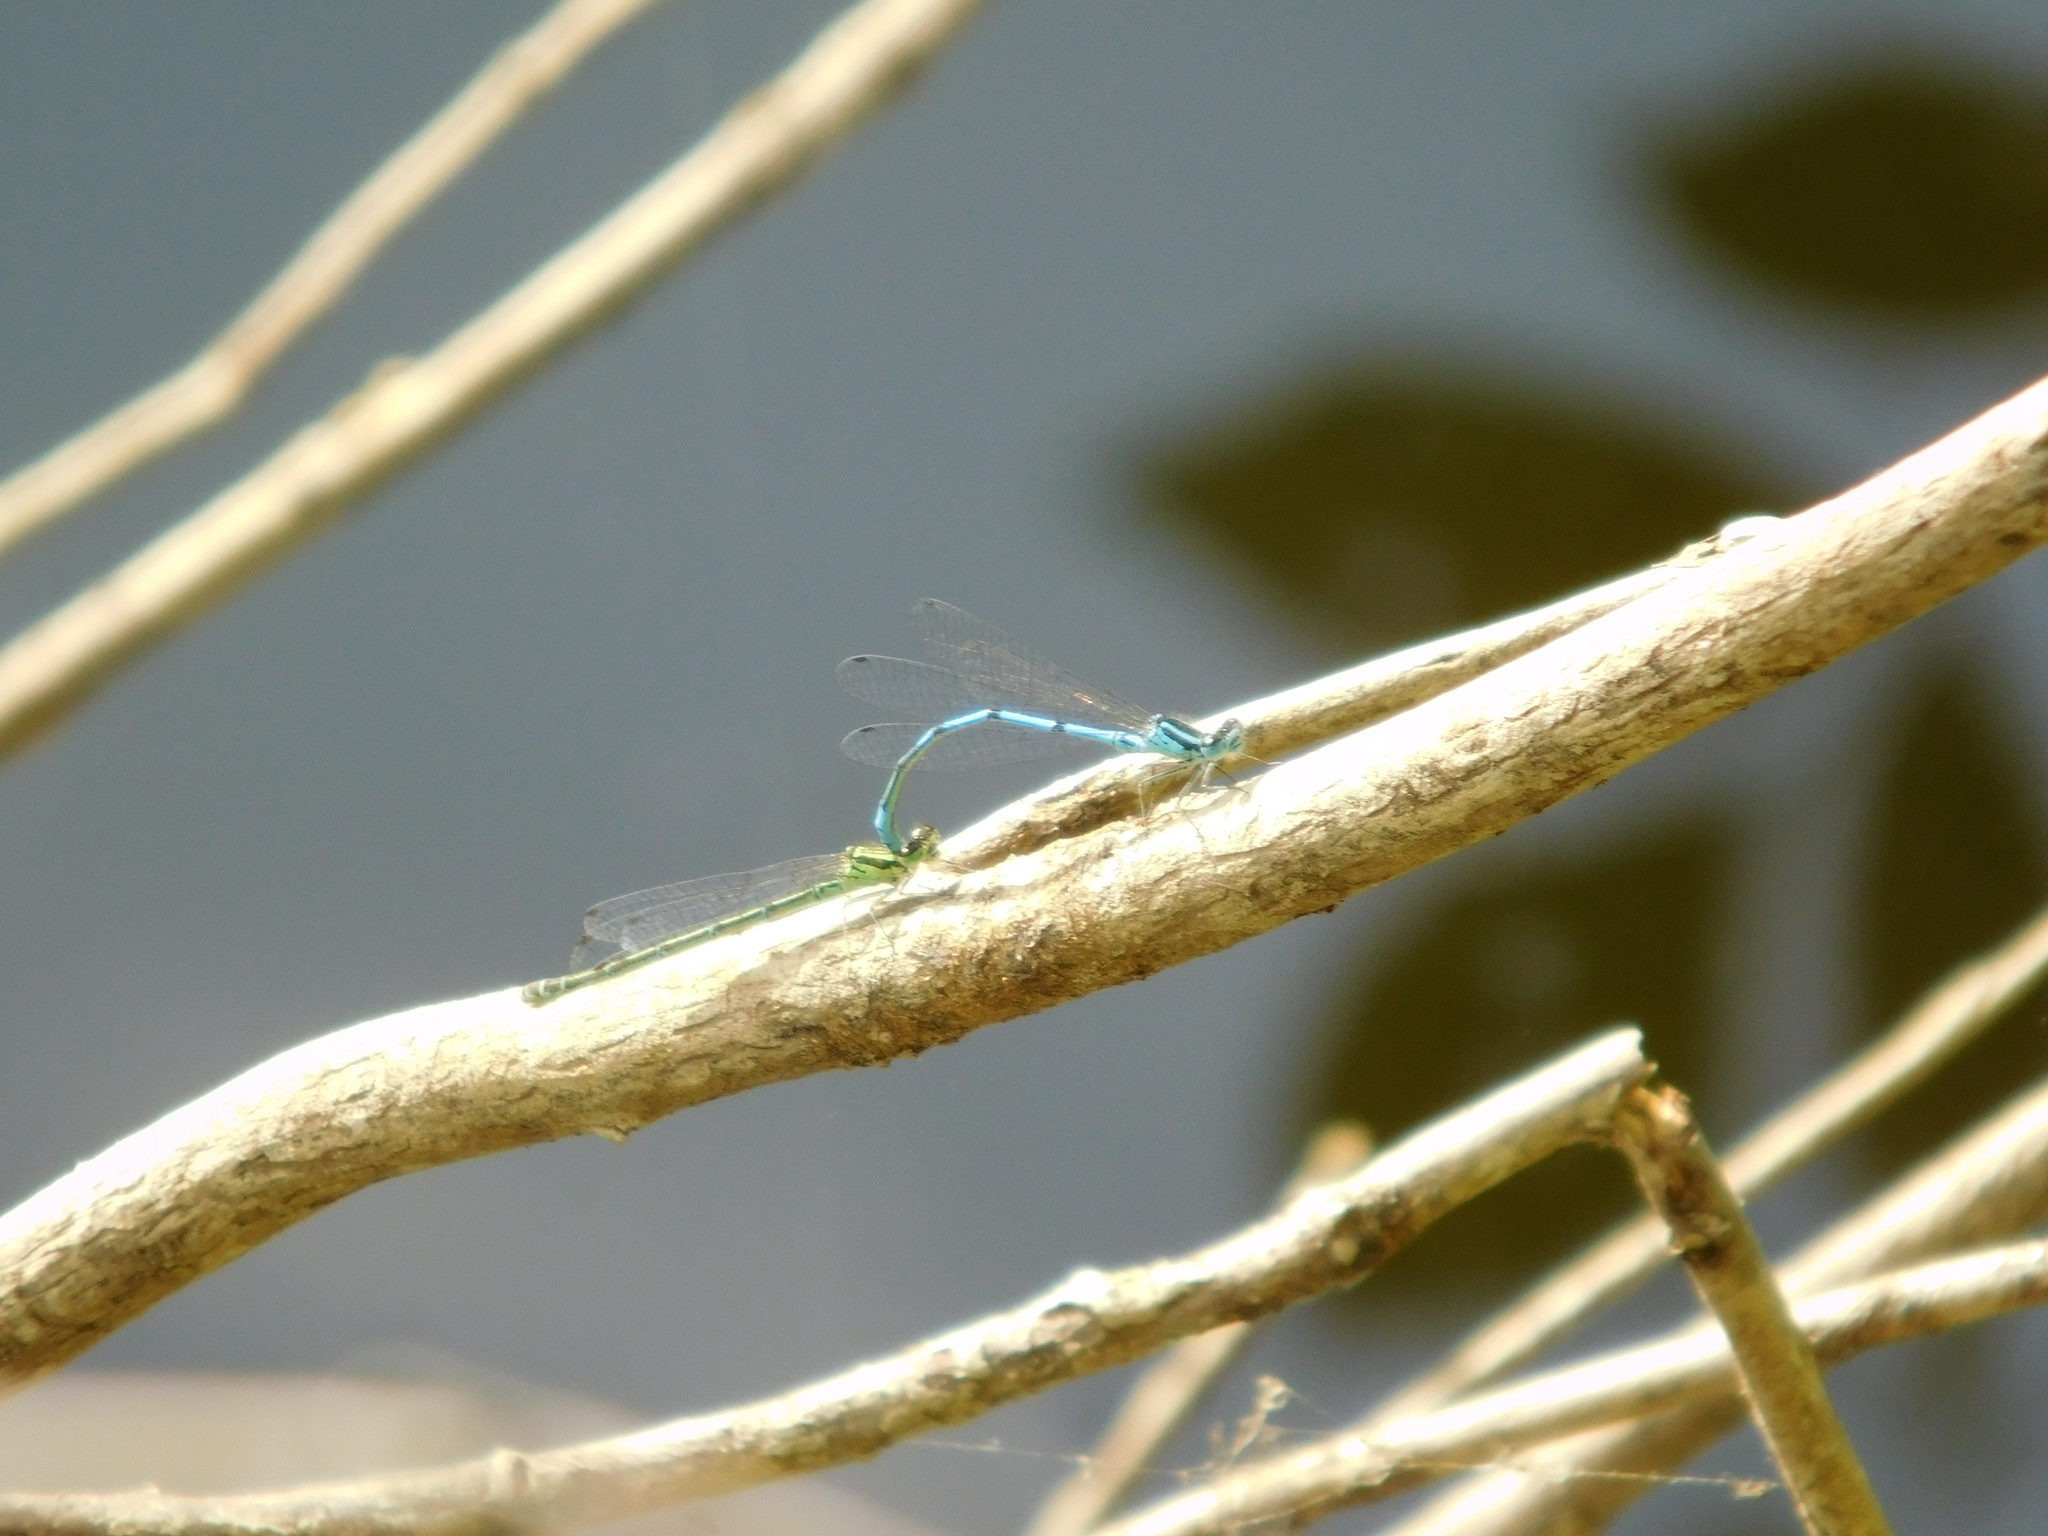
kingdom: Animalia
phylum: Arthropoda
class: Insecta
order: Odonata
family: Coenagrionidae
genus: Coenagrion
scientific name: Coenagrion puella
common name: Azure damselfly
